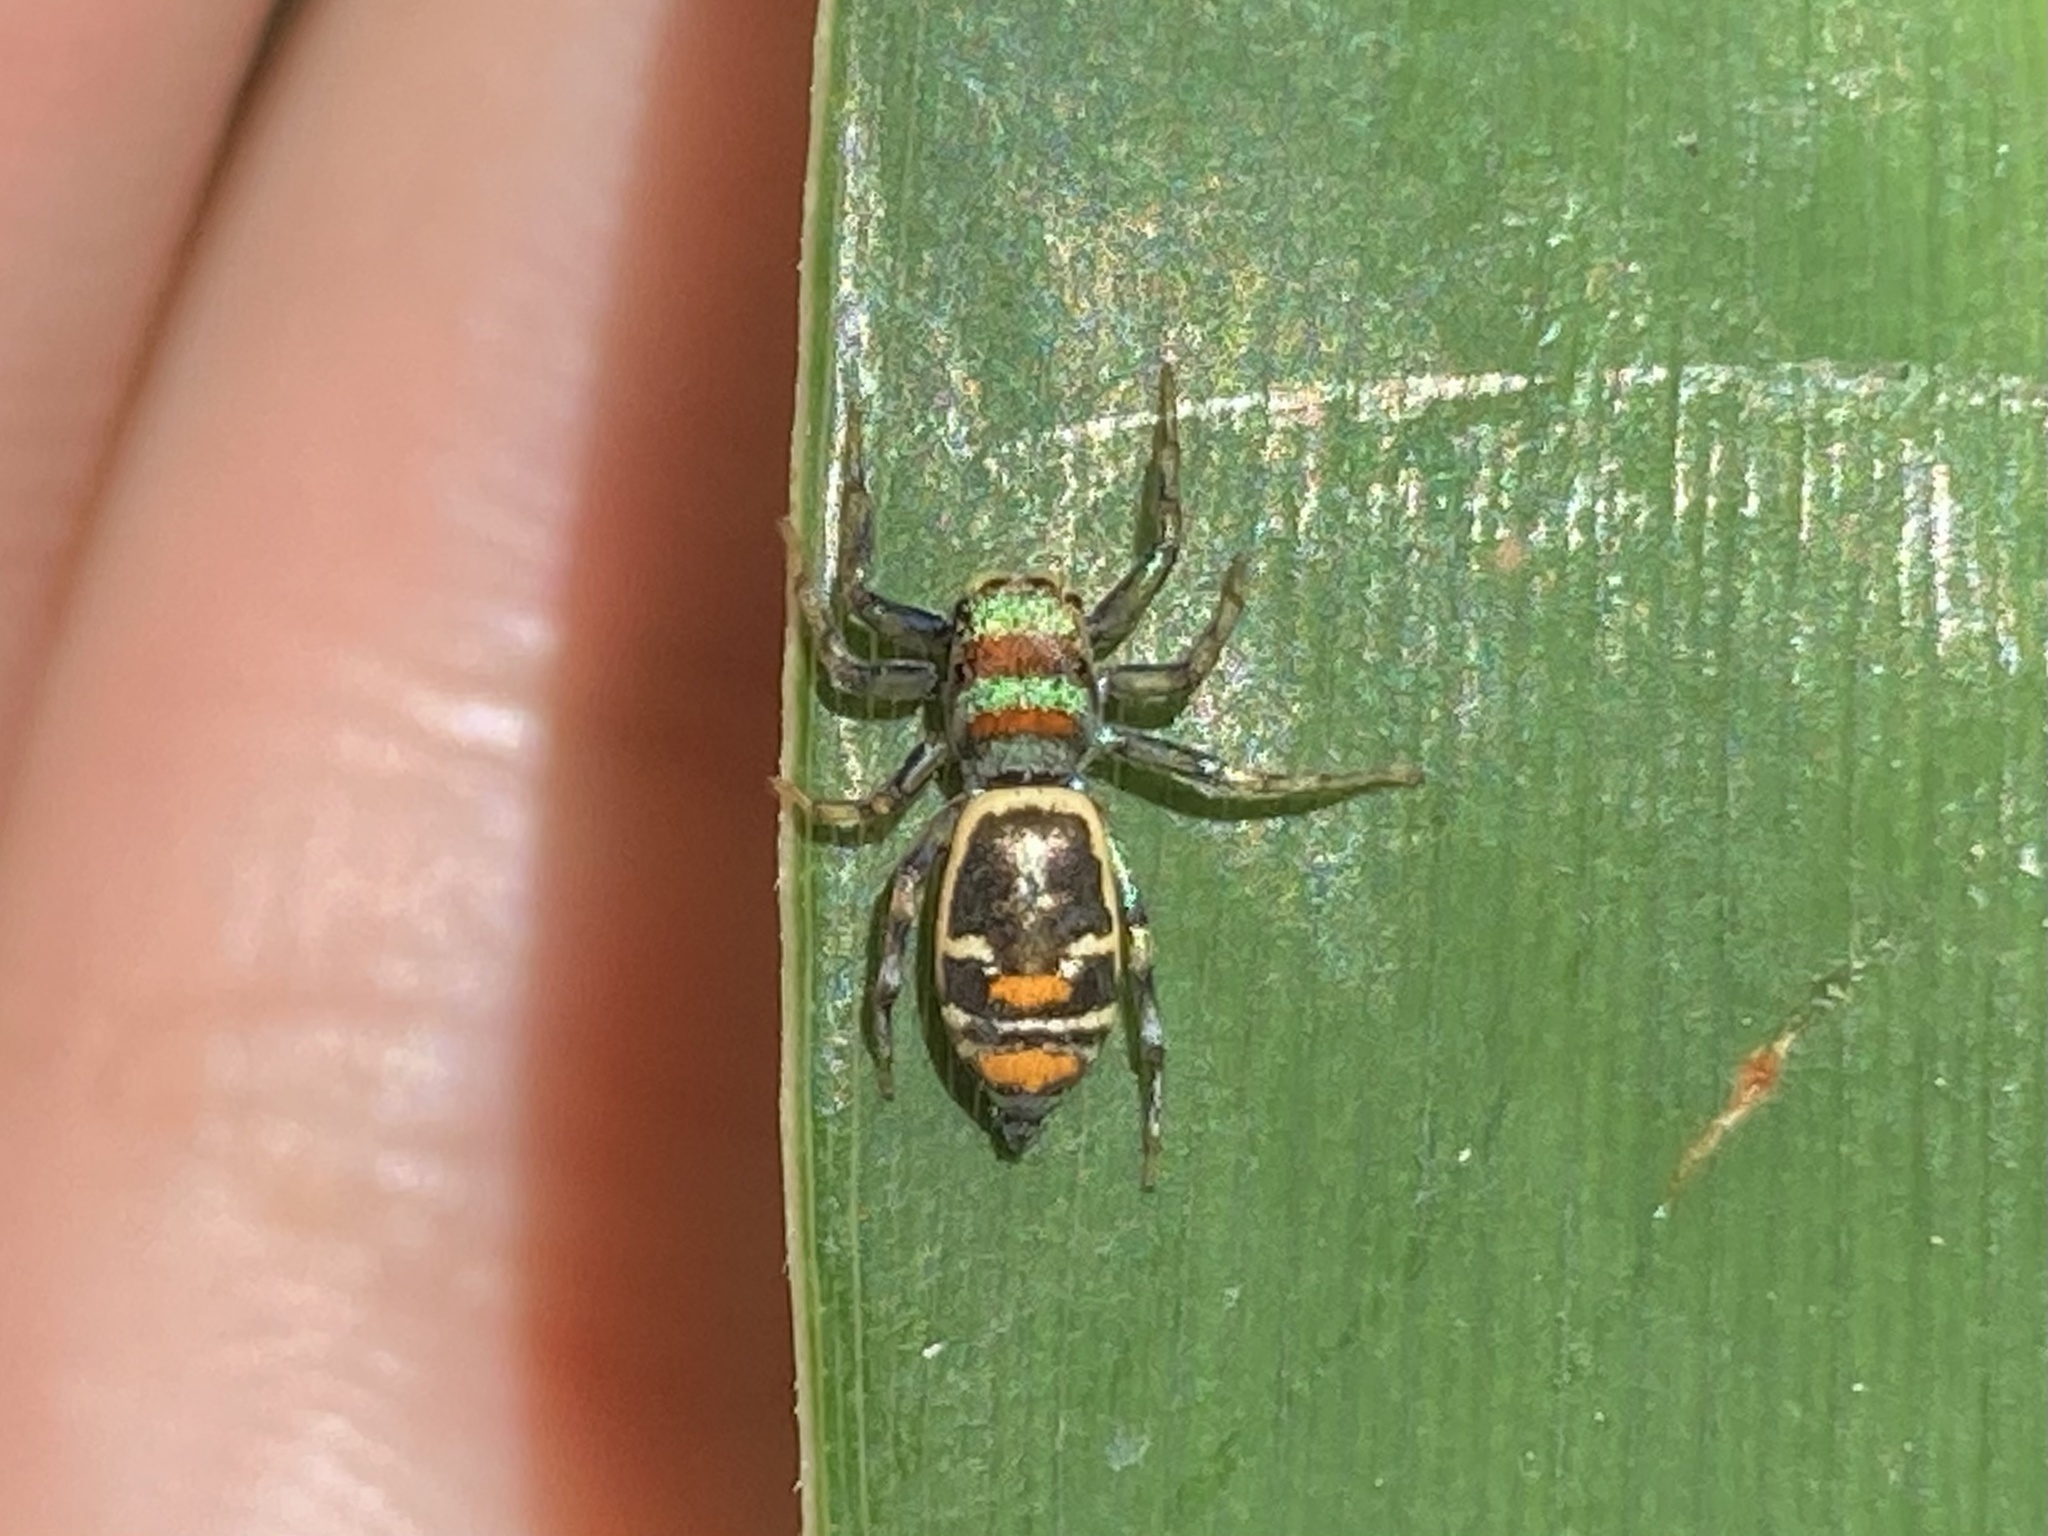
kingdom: Animalia
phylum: Arthropoda
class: Arachnida
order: Araneae
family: Salticidae
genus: Cosmophasis
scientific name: Cosmophasis micarioides
